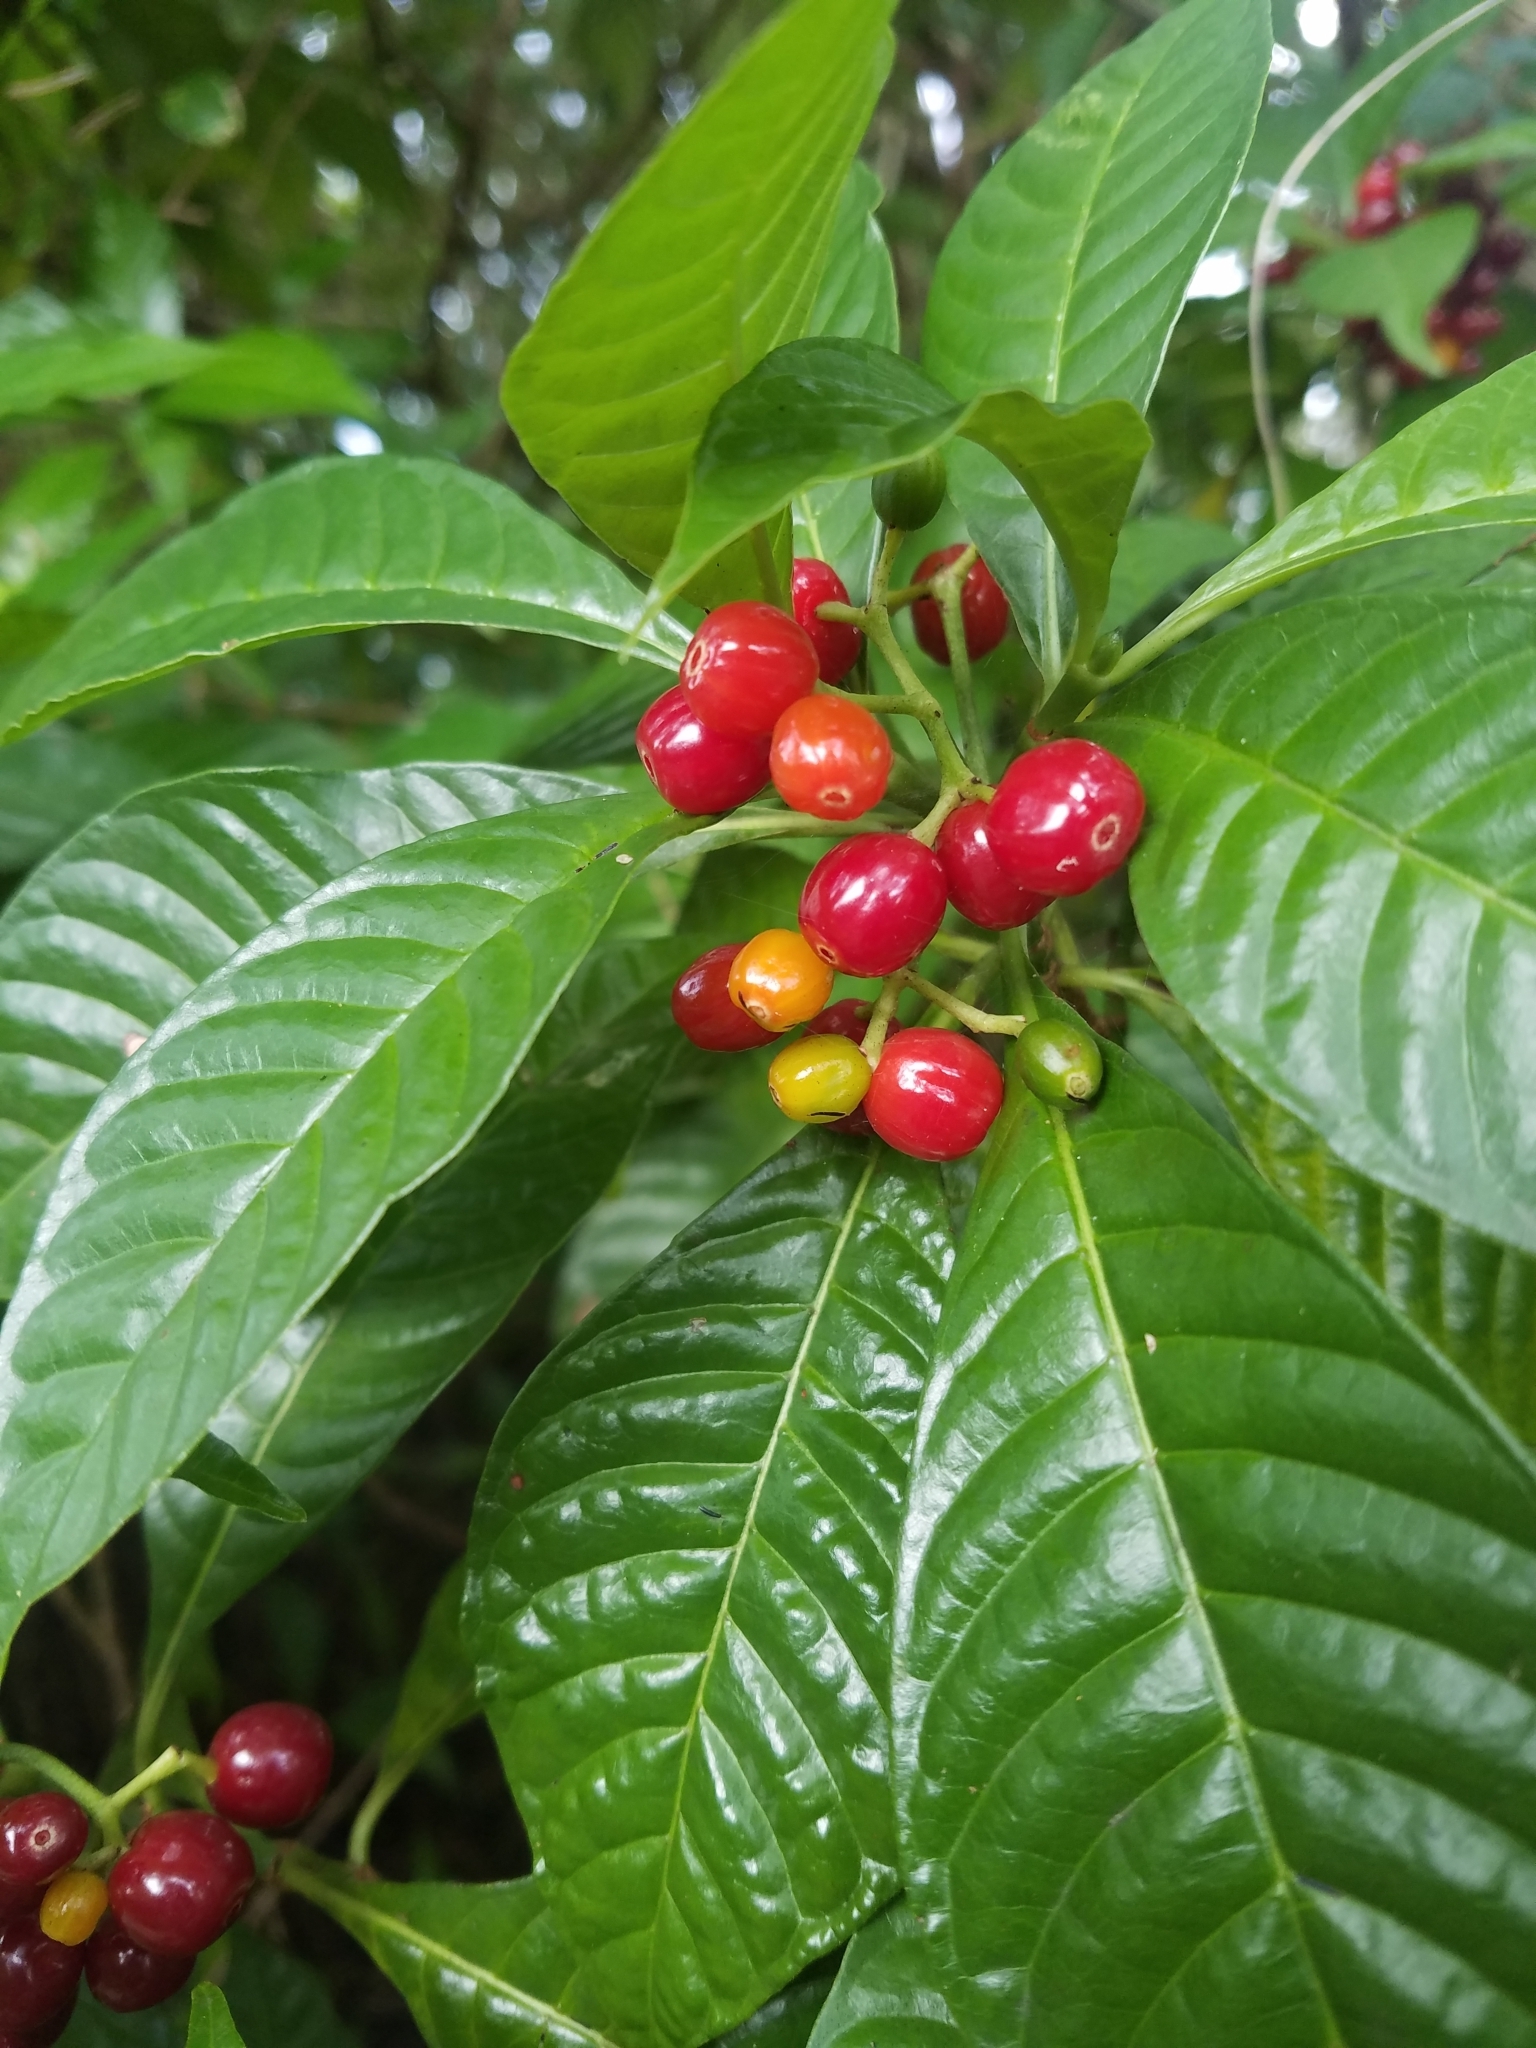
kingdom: Plantae
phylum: Tracheophyta
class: Magnoliopsida
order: Gentianales
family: Rubiaceae
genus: Psychotria
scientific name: Psychotria nervosa
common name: Bastard cankerberry
